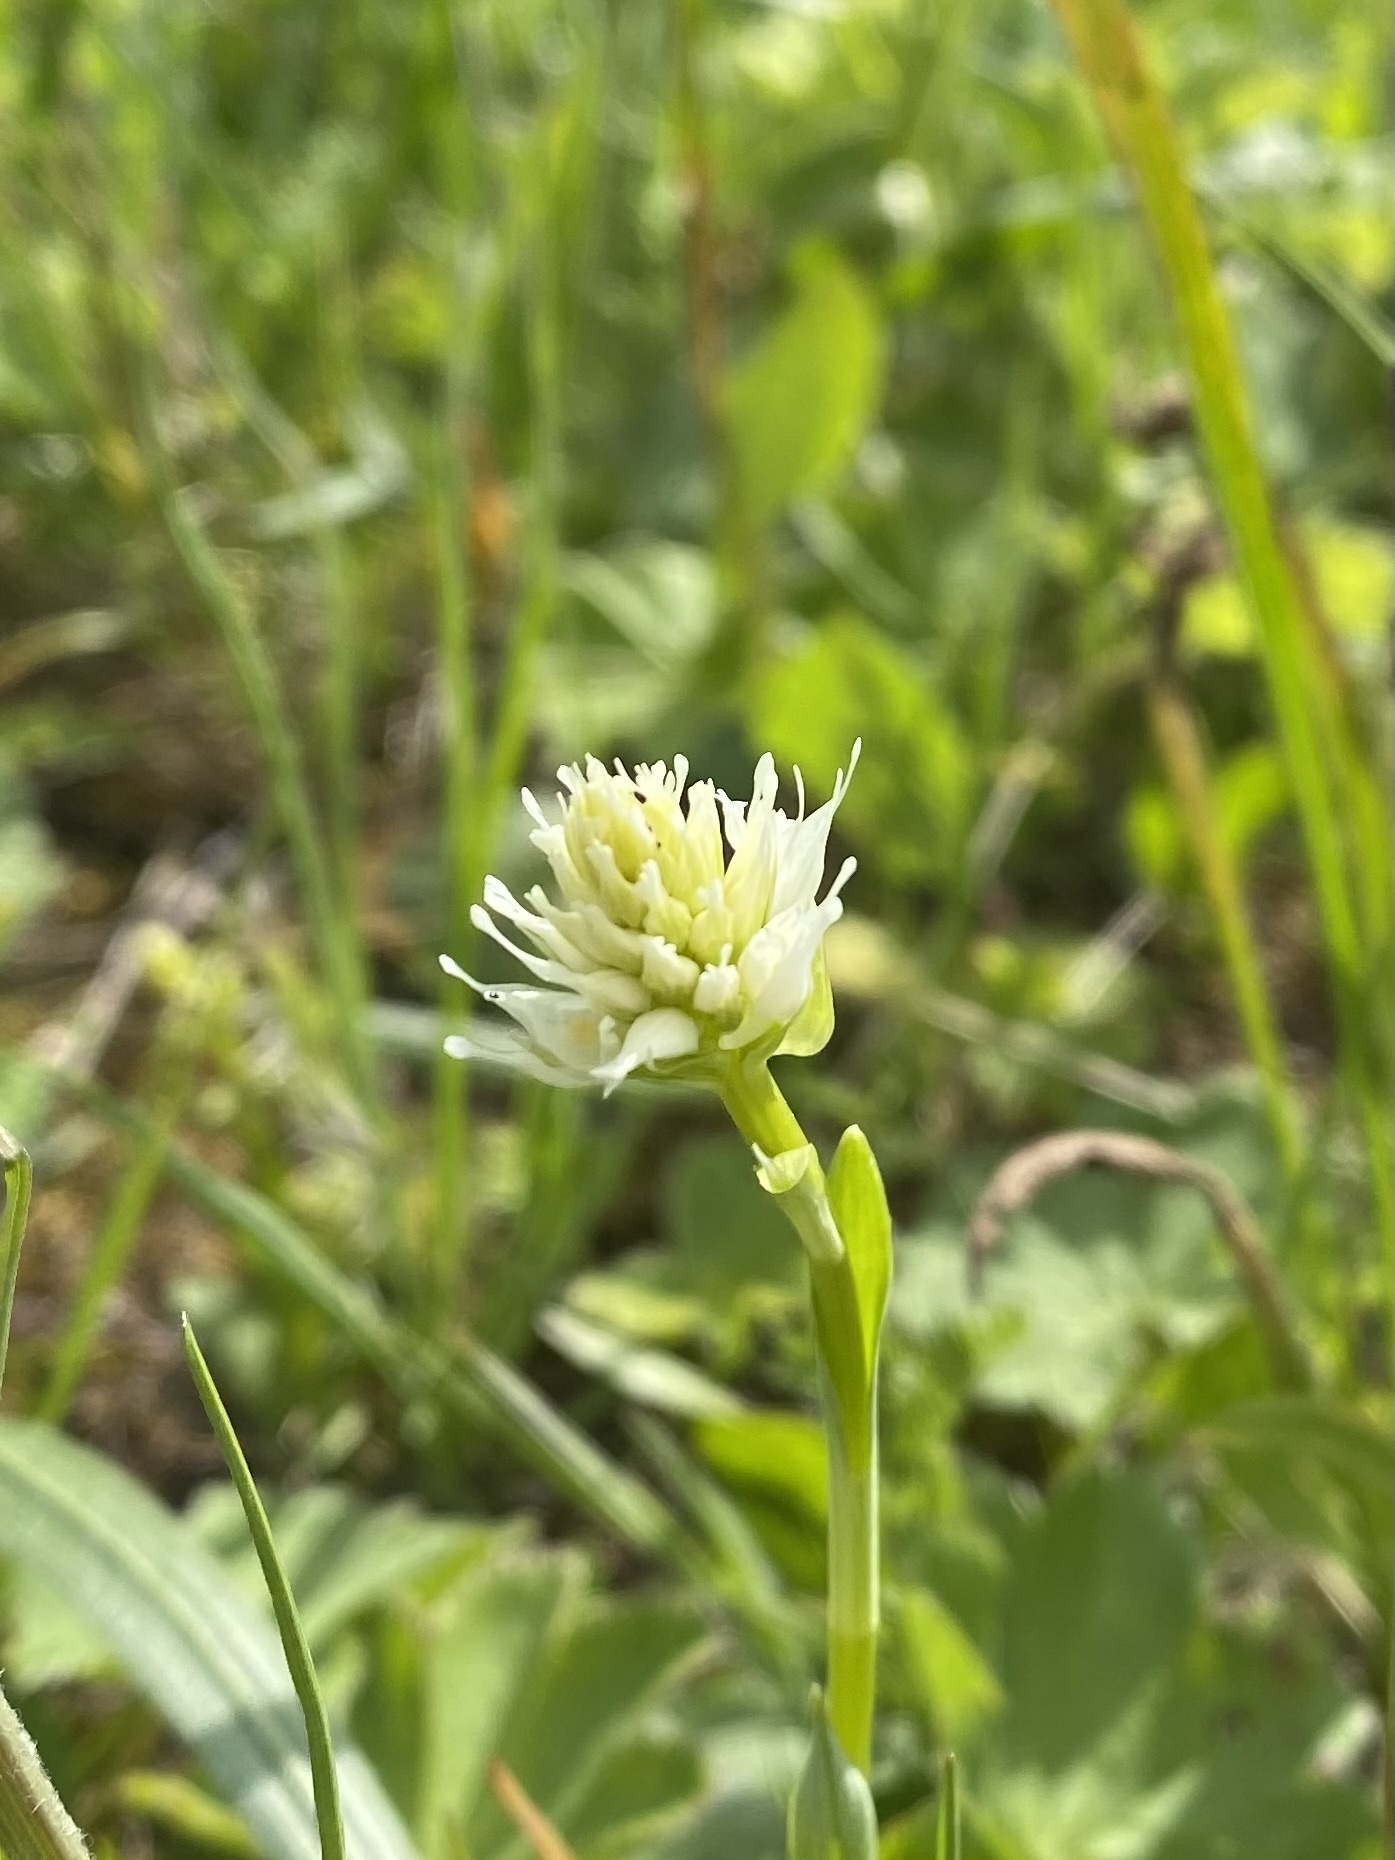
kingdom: Plantae
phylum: Tracheophyta
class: Liliopsida
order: Asparagales
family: Orchidaceae
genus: Traunsteinera
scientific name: Traunsteinera sphaerica
